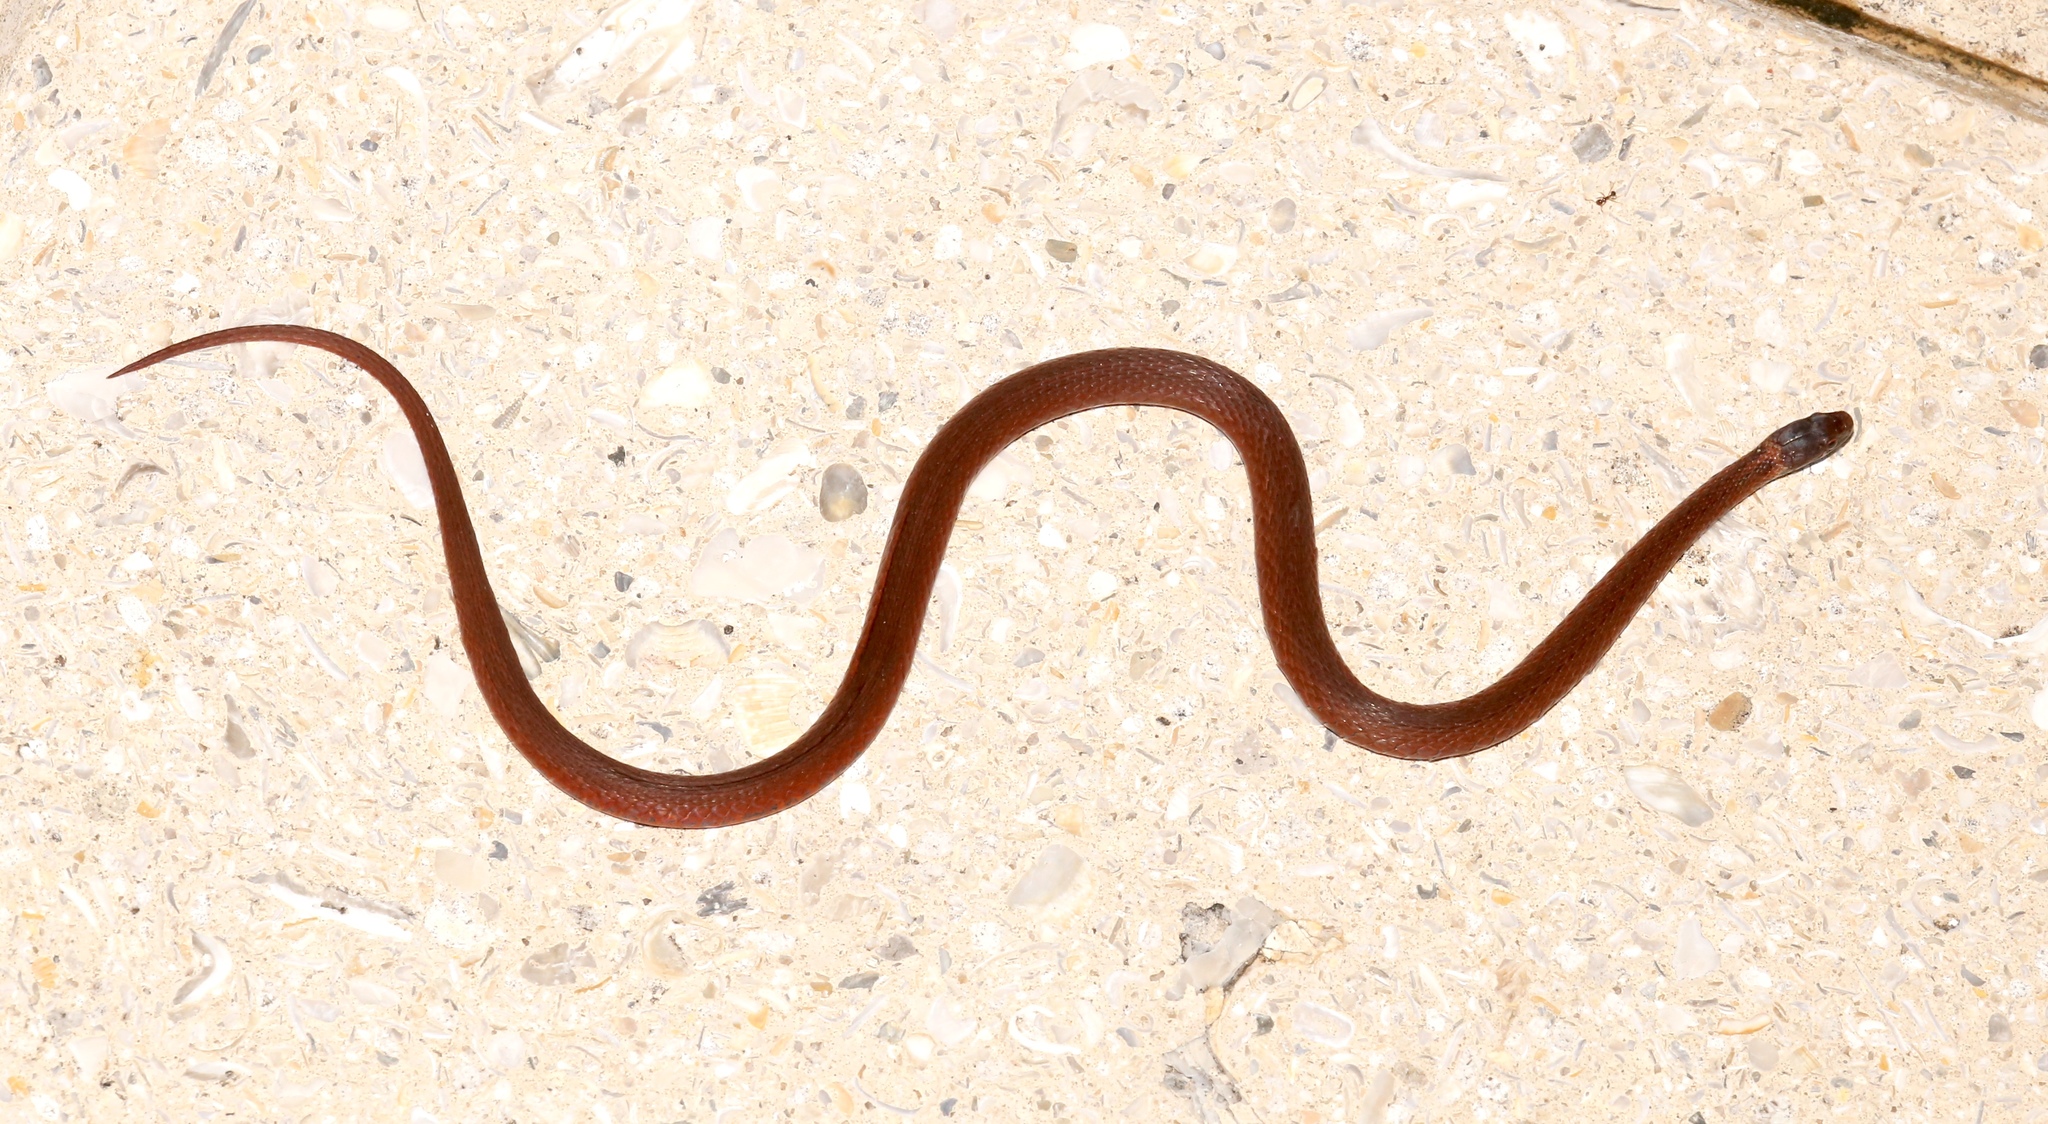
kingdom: Animalia
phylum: Chordata
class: Squamata
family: Colubridae
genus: Storeria
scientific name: Storeria occipitomaculata
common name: Redbelly snake
